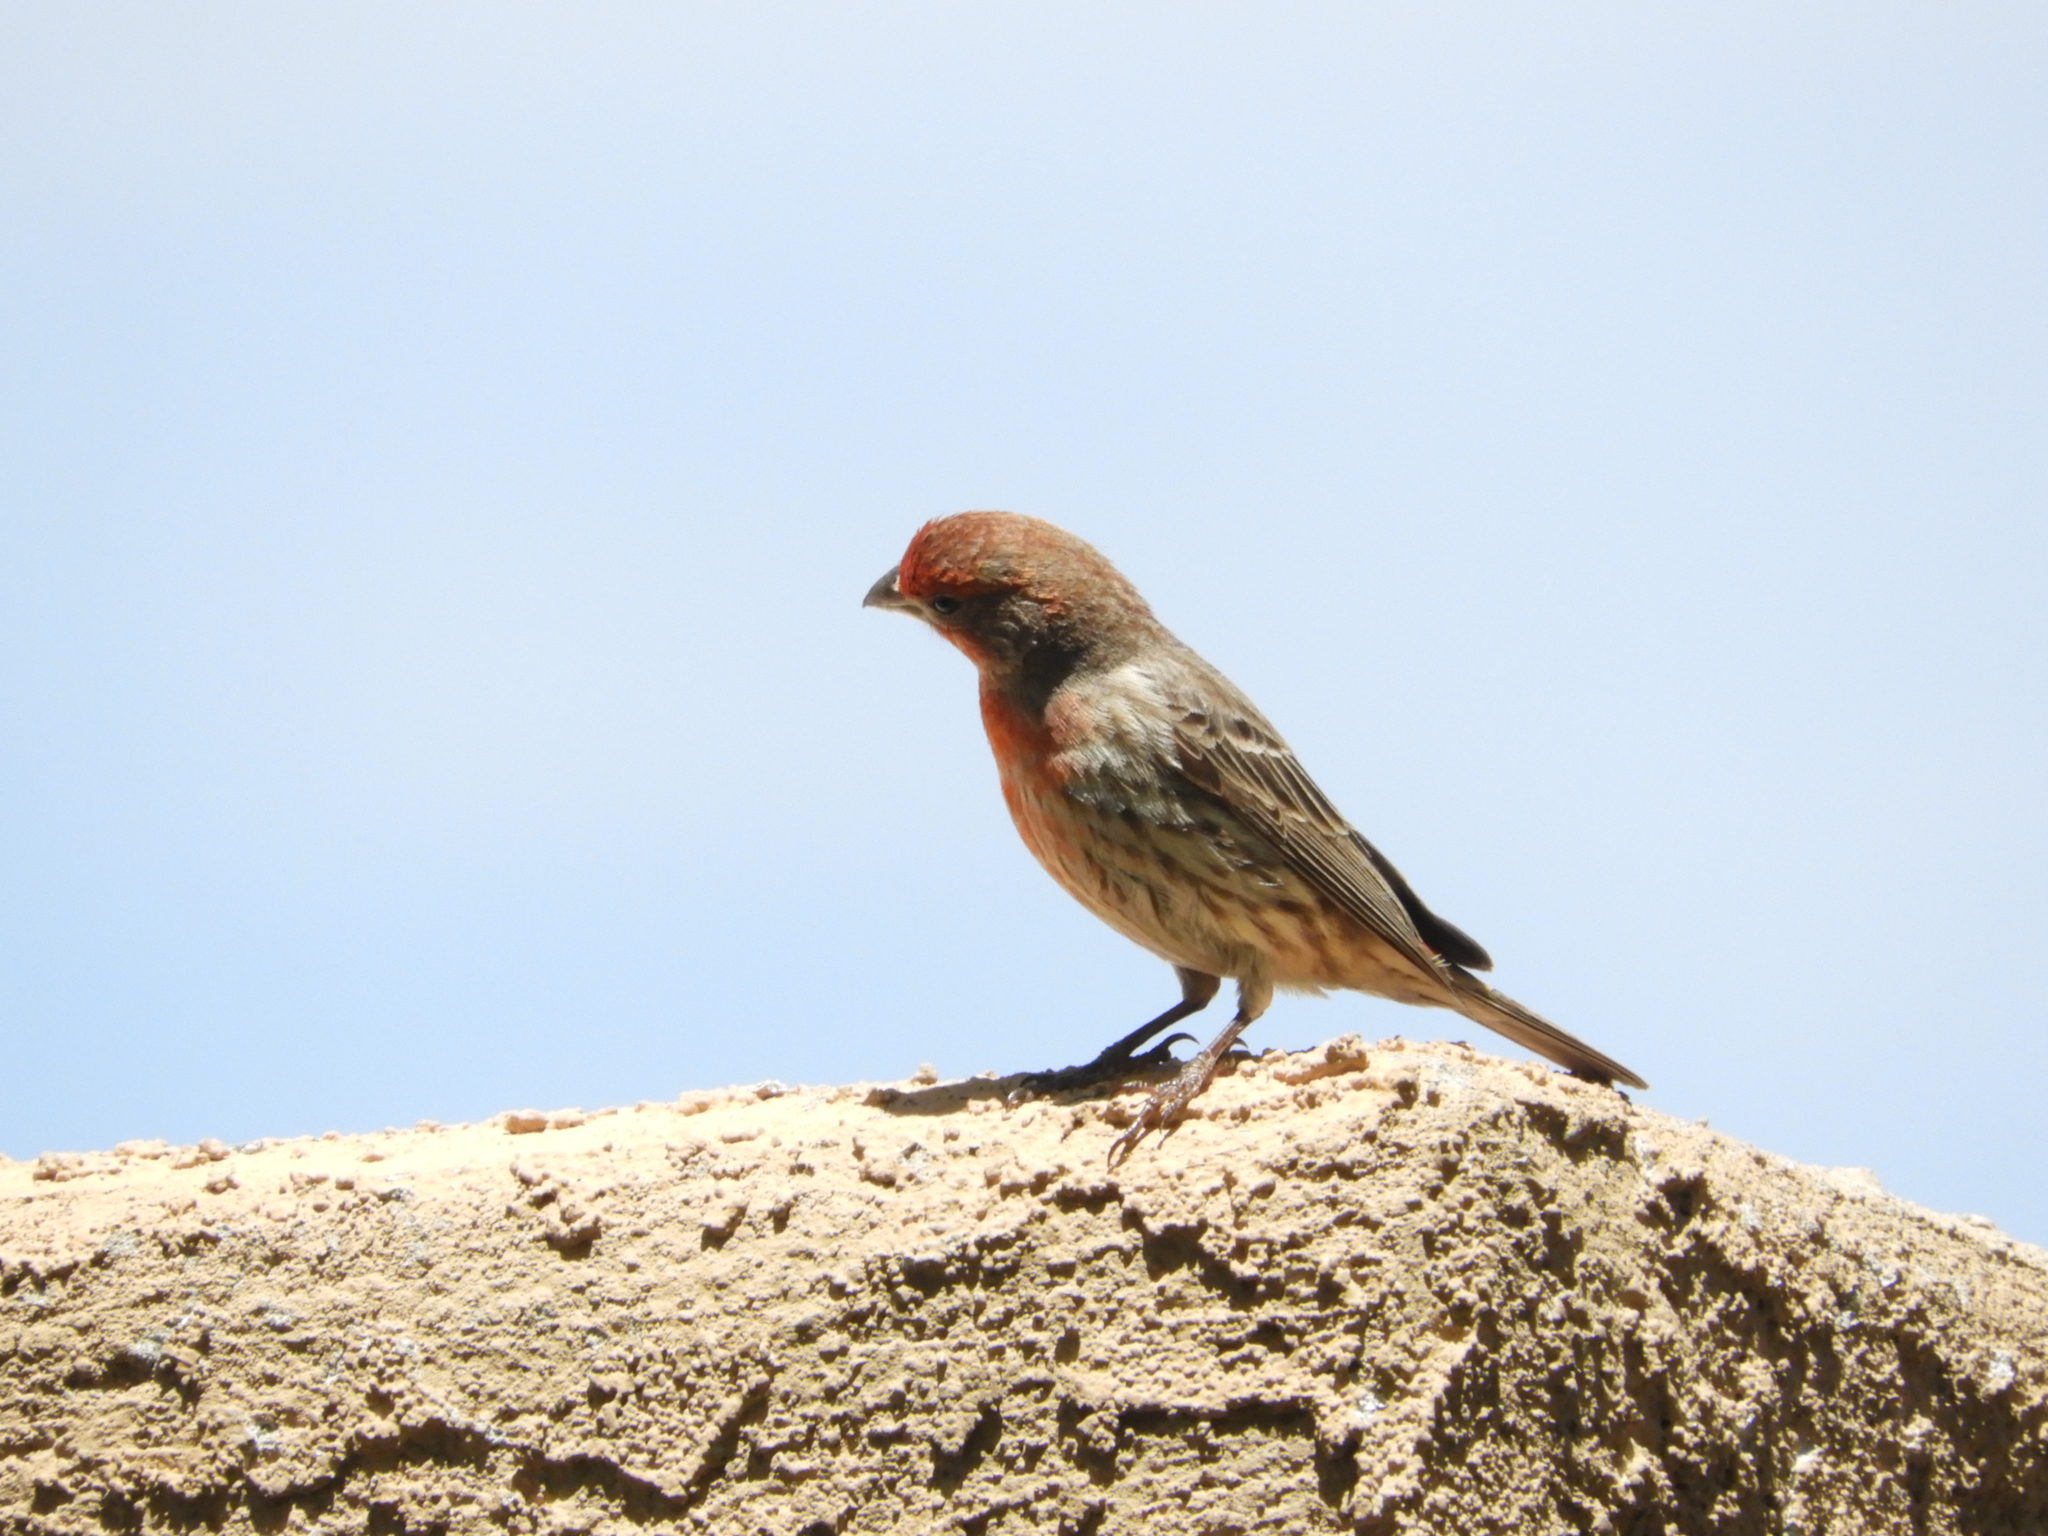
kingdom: Animalia
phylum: Chordata
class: Aves
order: Passeriformes
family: Fringillidae
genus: Haemorhous
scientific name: Haemorhous mexicanus
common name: House finch
